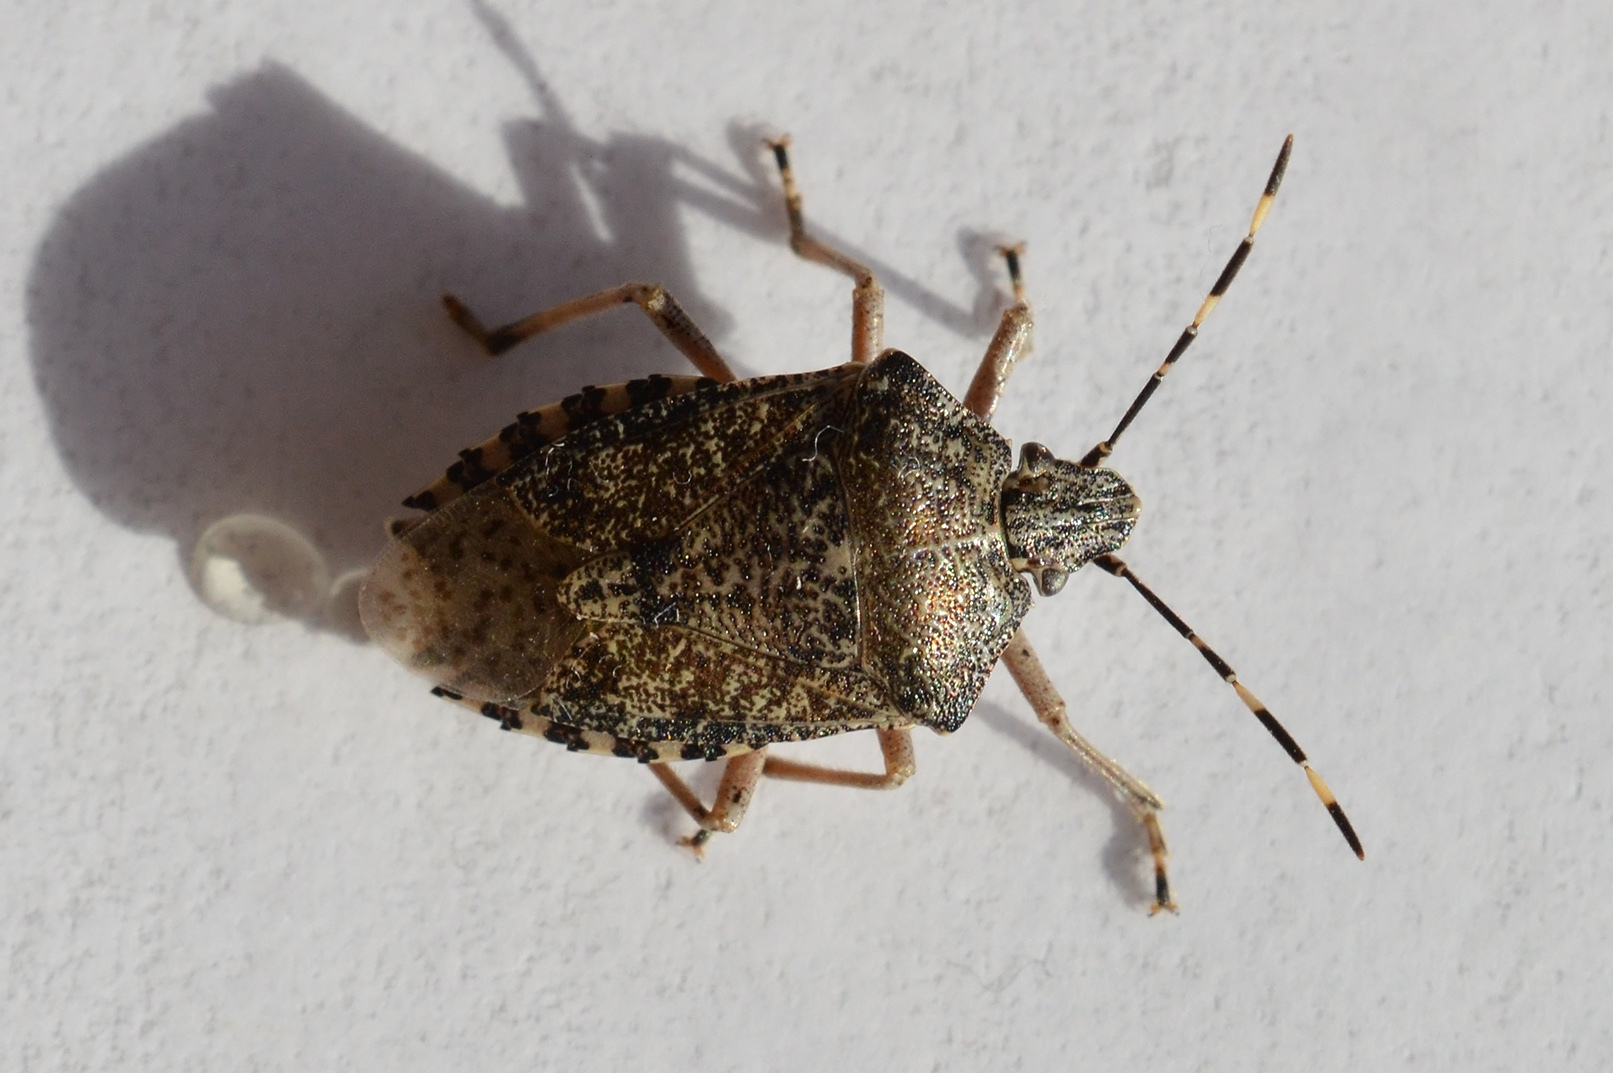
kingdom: Animalia
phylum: Arthropoda
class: Insecta
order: Hemiptera
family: Pentatomidae
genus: Rhaphigaster
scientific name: Rhaphigaster nebulosa
